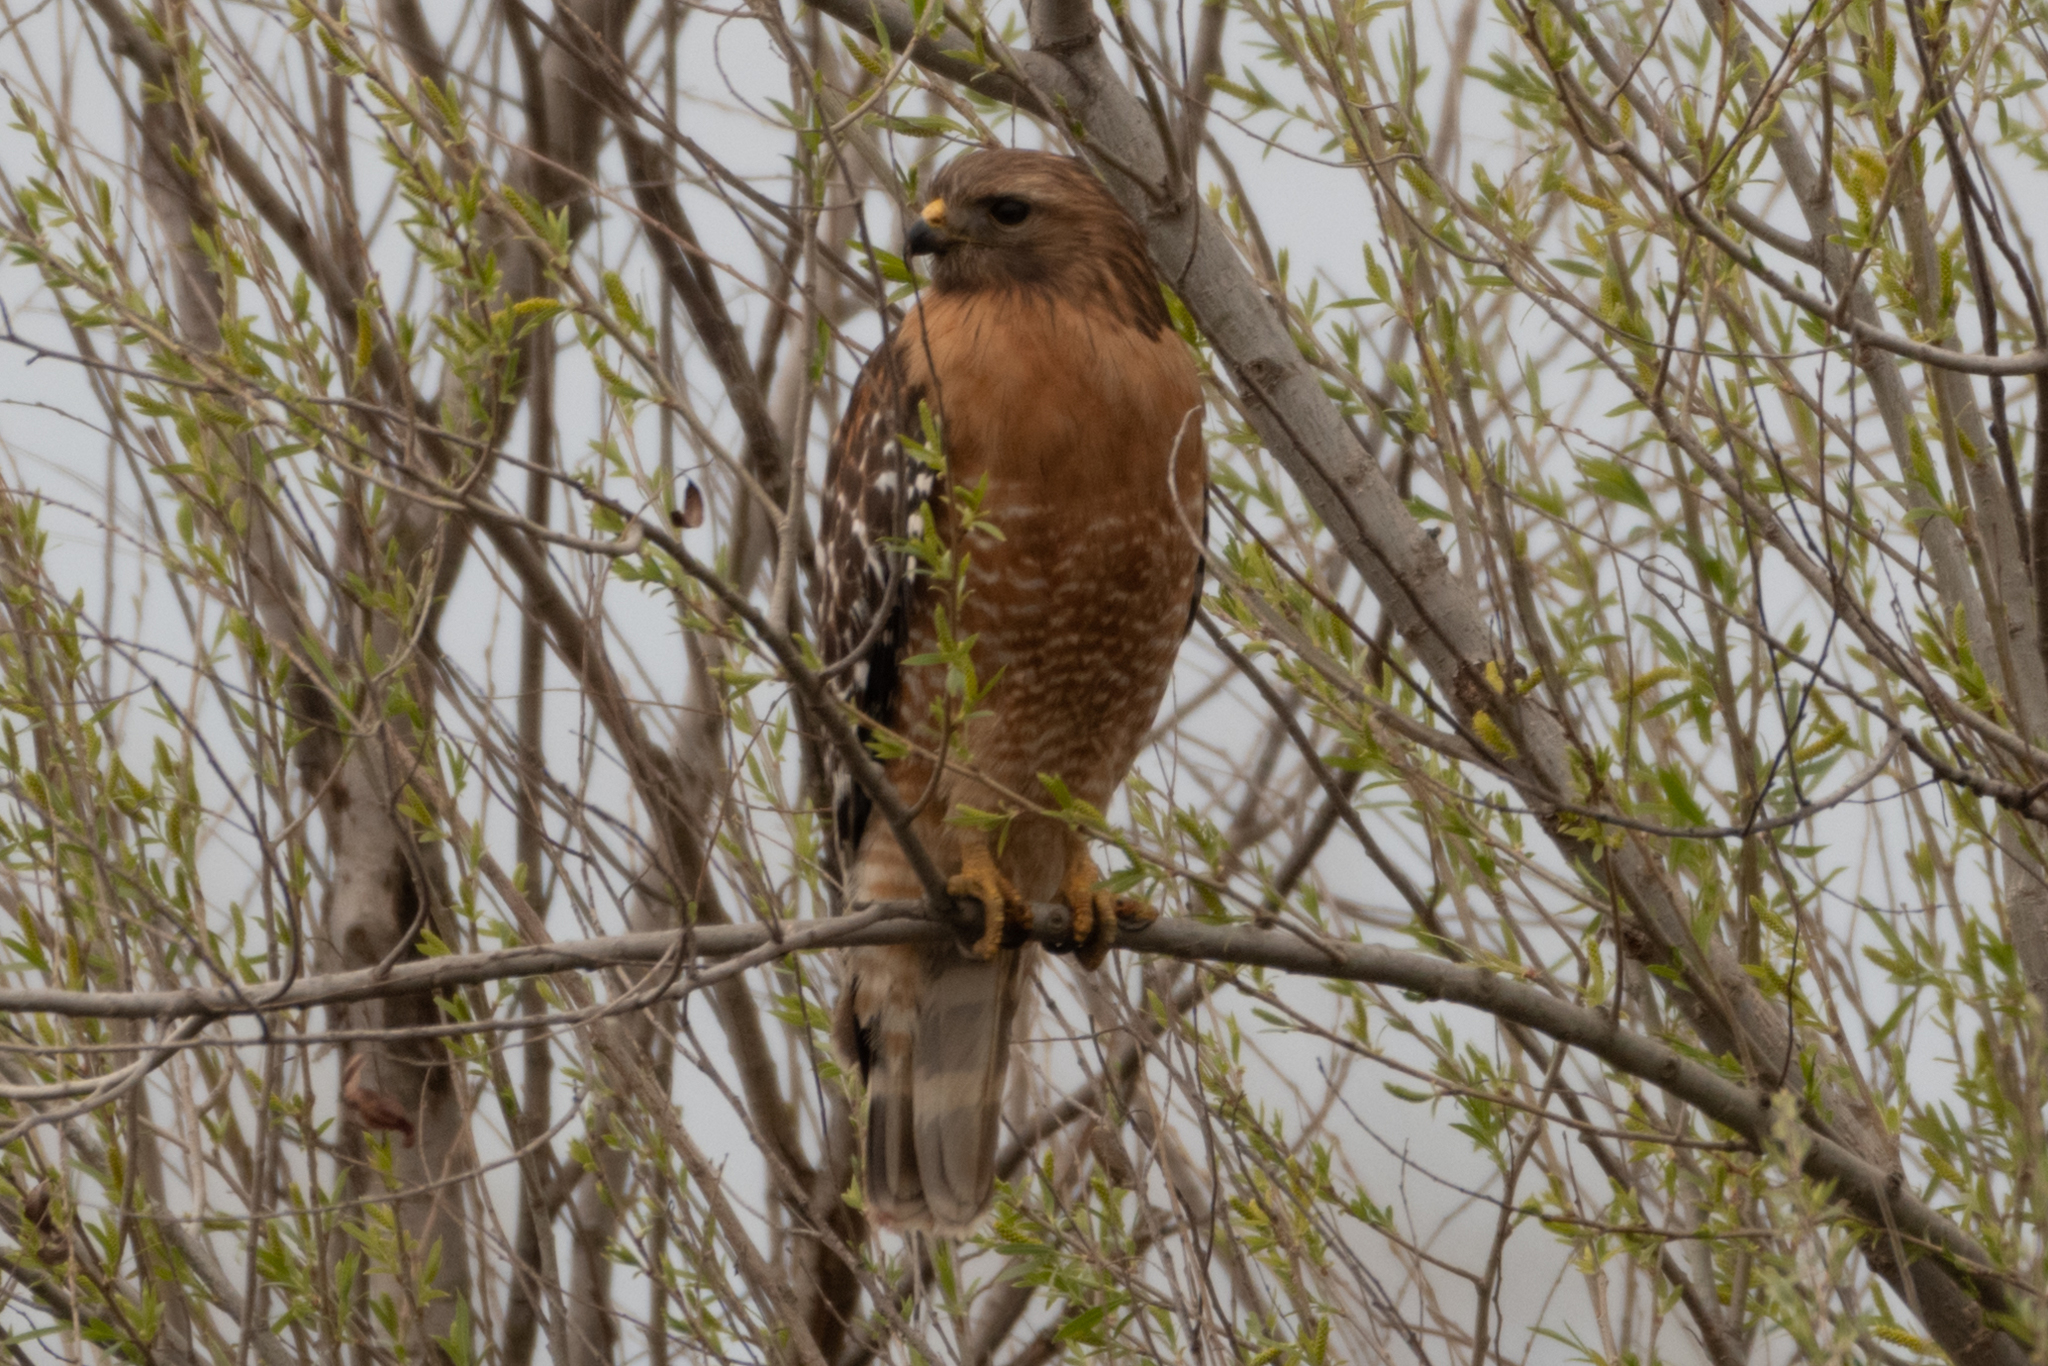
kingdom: Animalia
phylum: Chordata
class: Aves
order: Accipitriformes
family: Accipitridae
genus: Buteo
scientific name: Buteo lineatus
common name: Red-shouldered hawk
